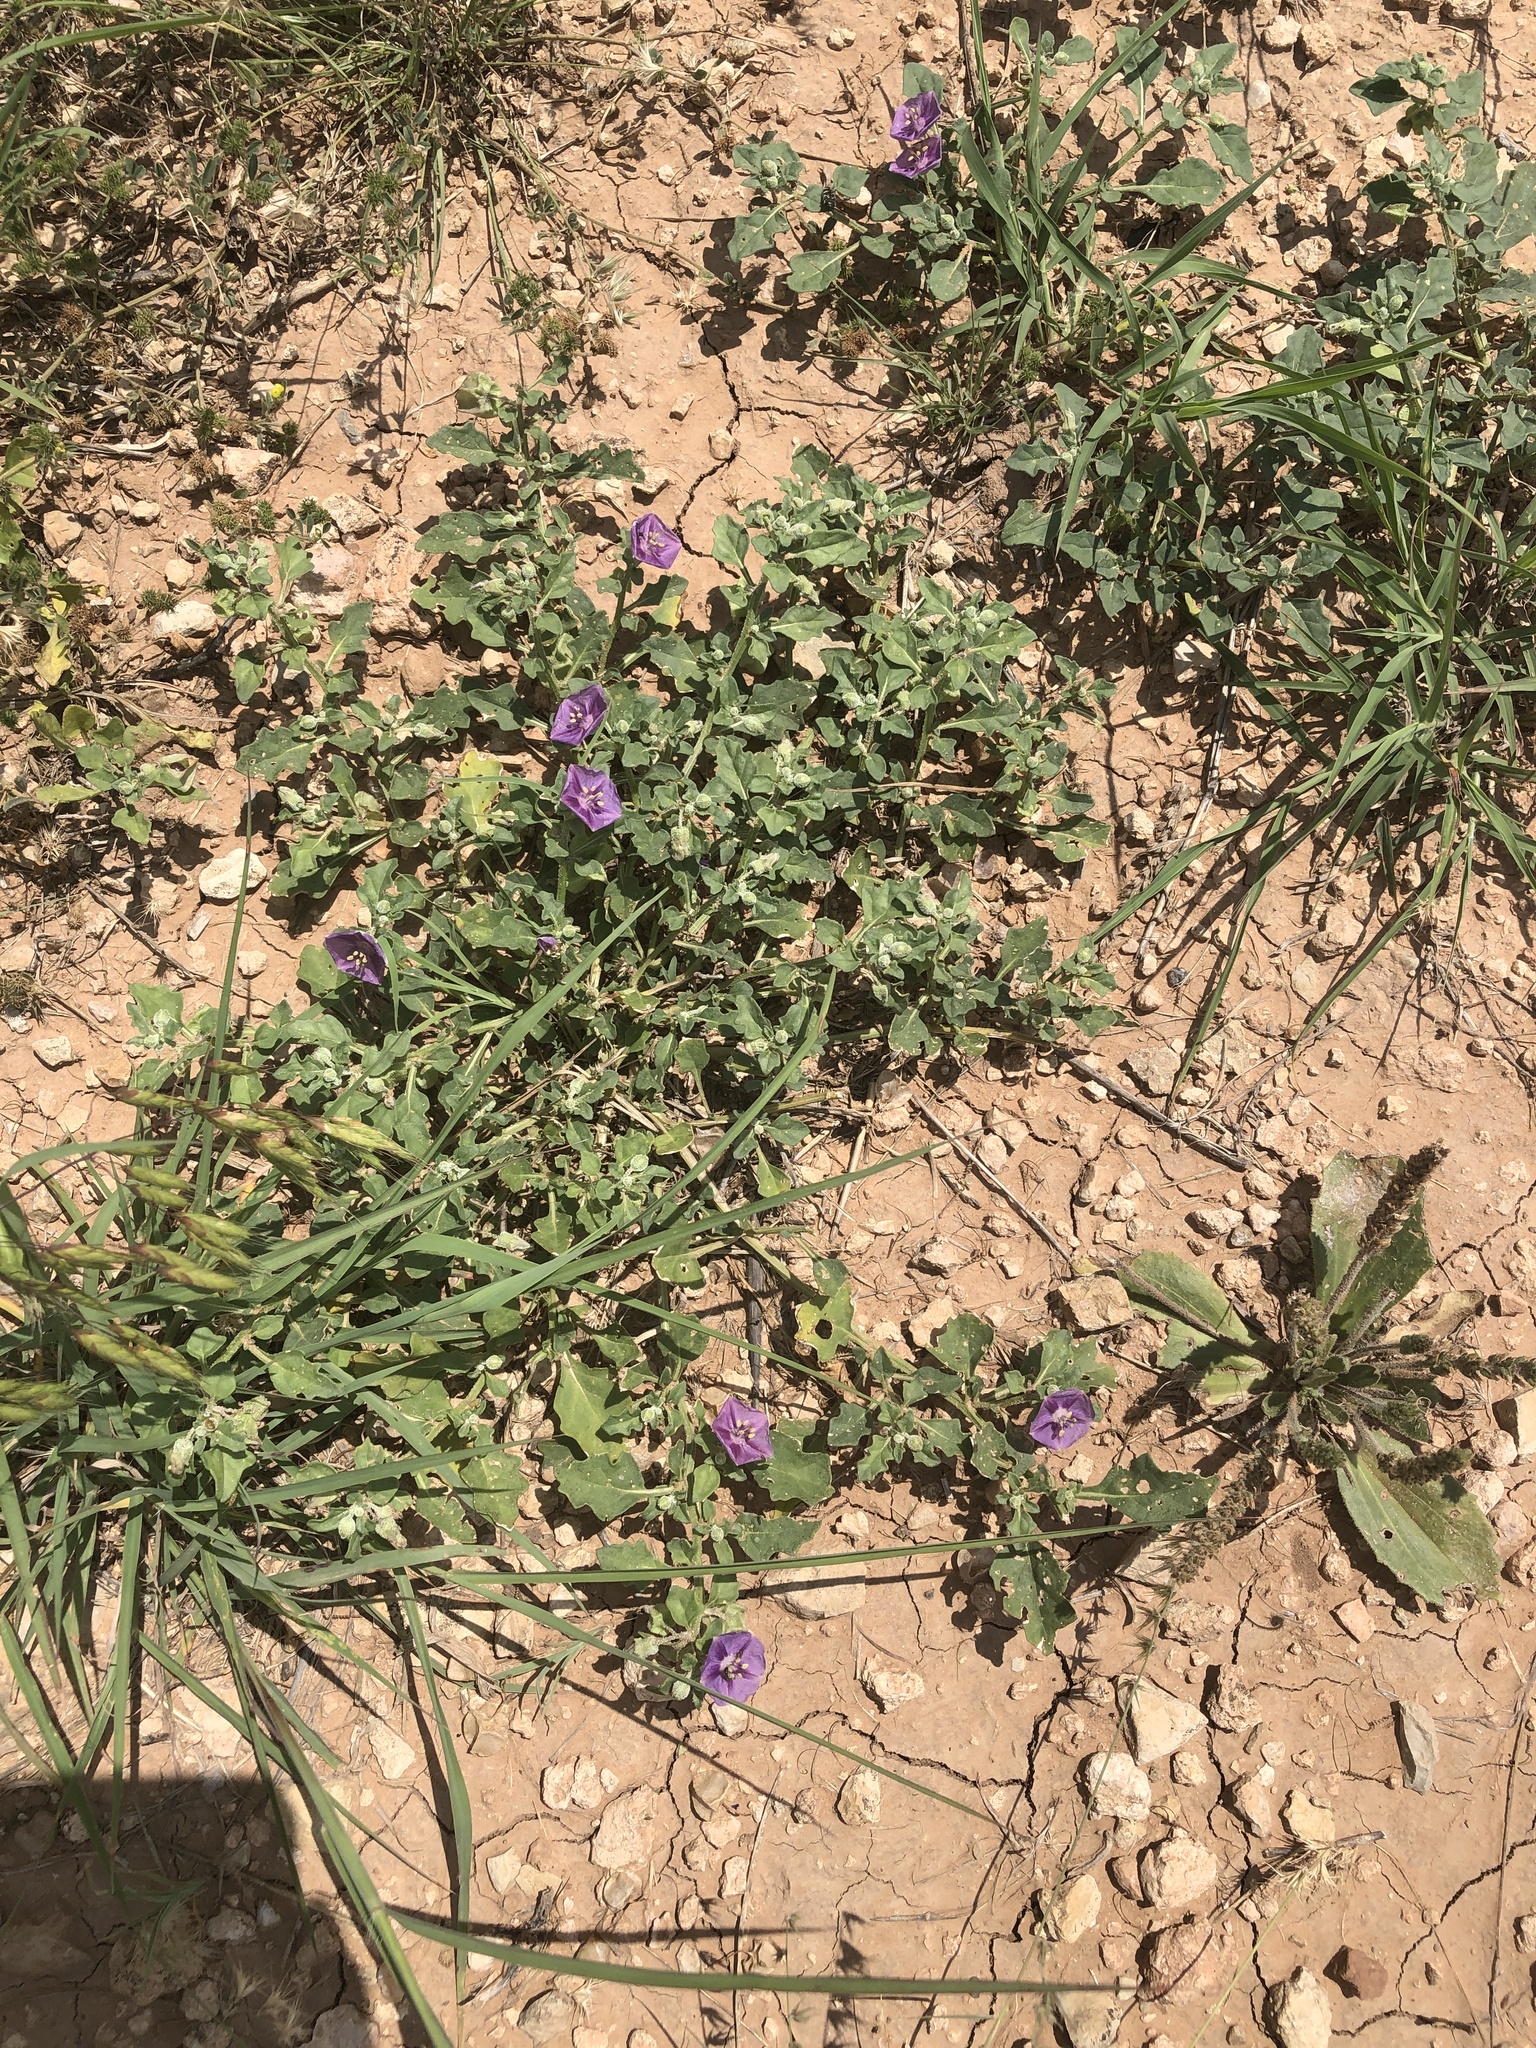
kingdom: Plantae
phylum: Tracheophyta
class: Magnoliopsida
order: Solanales
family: Solanaceae
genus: Quincula
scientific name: Quincula lobata
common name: Purple-ground-cherry
